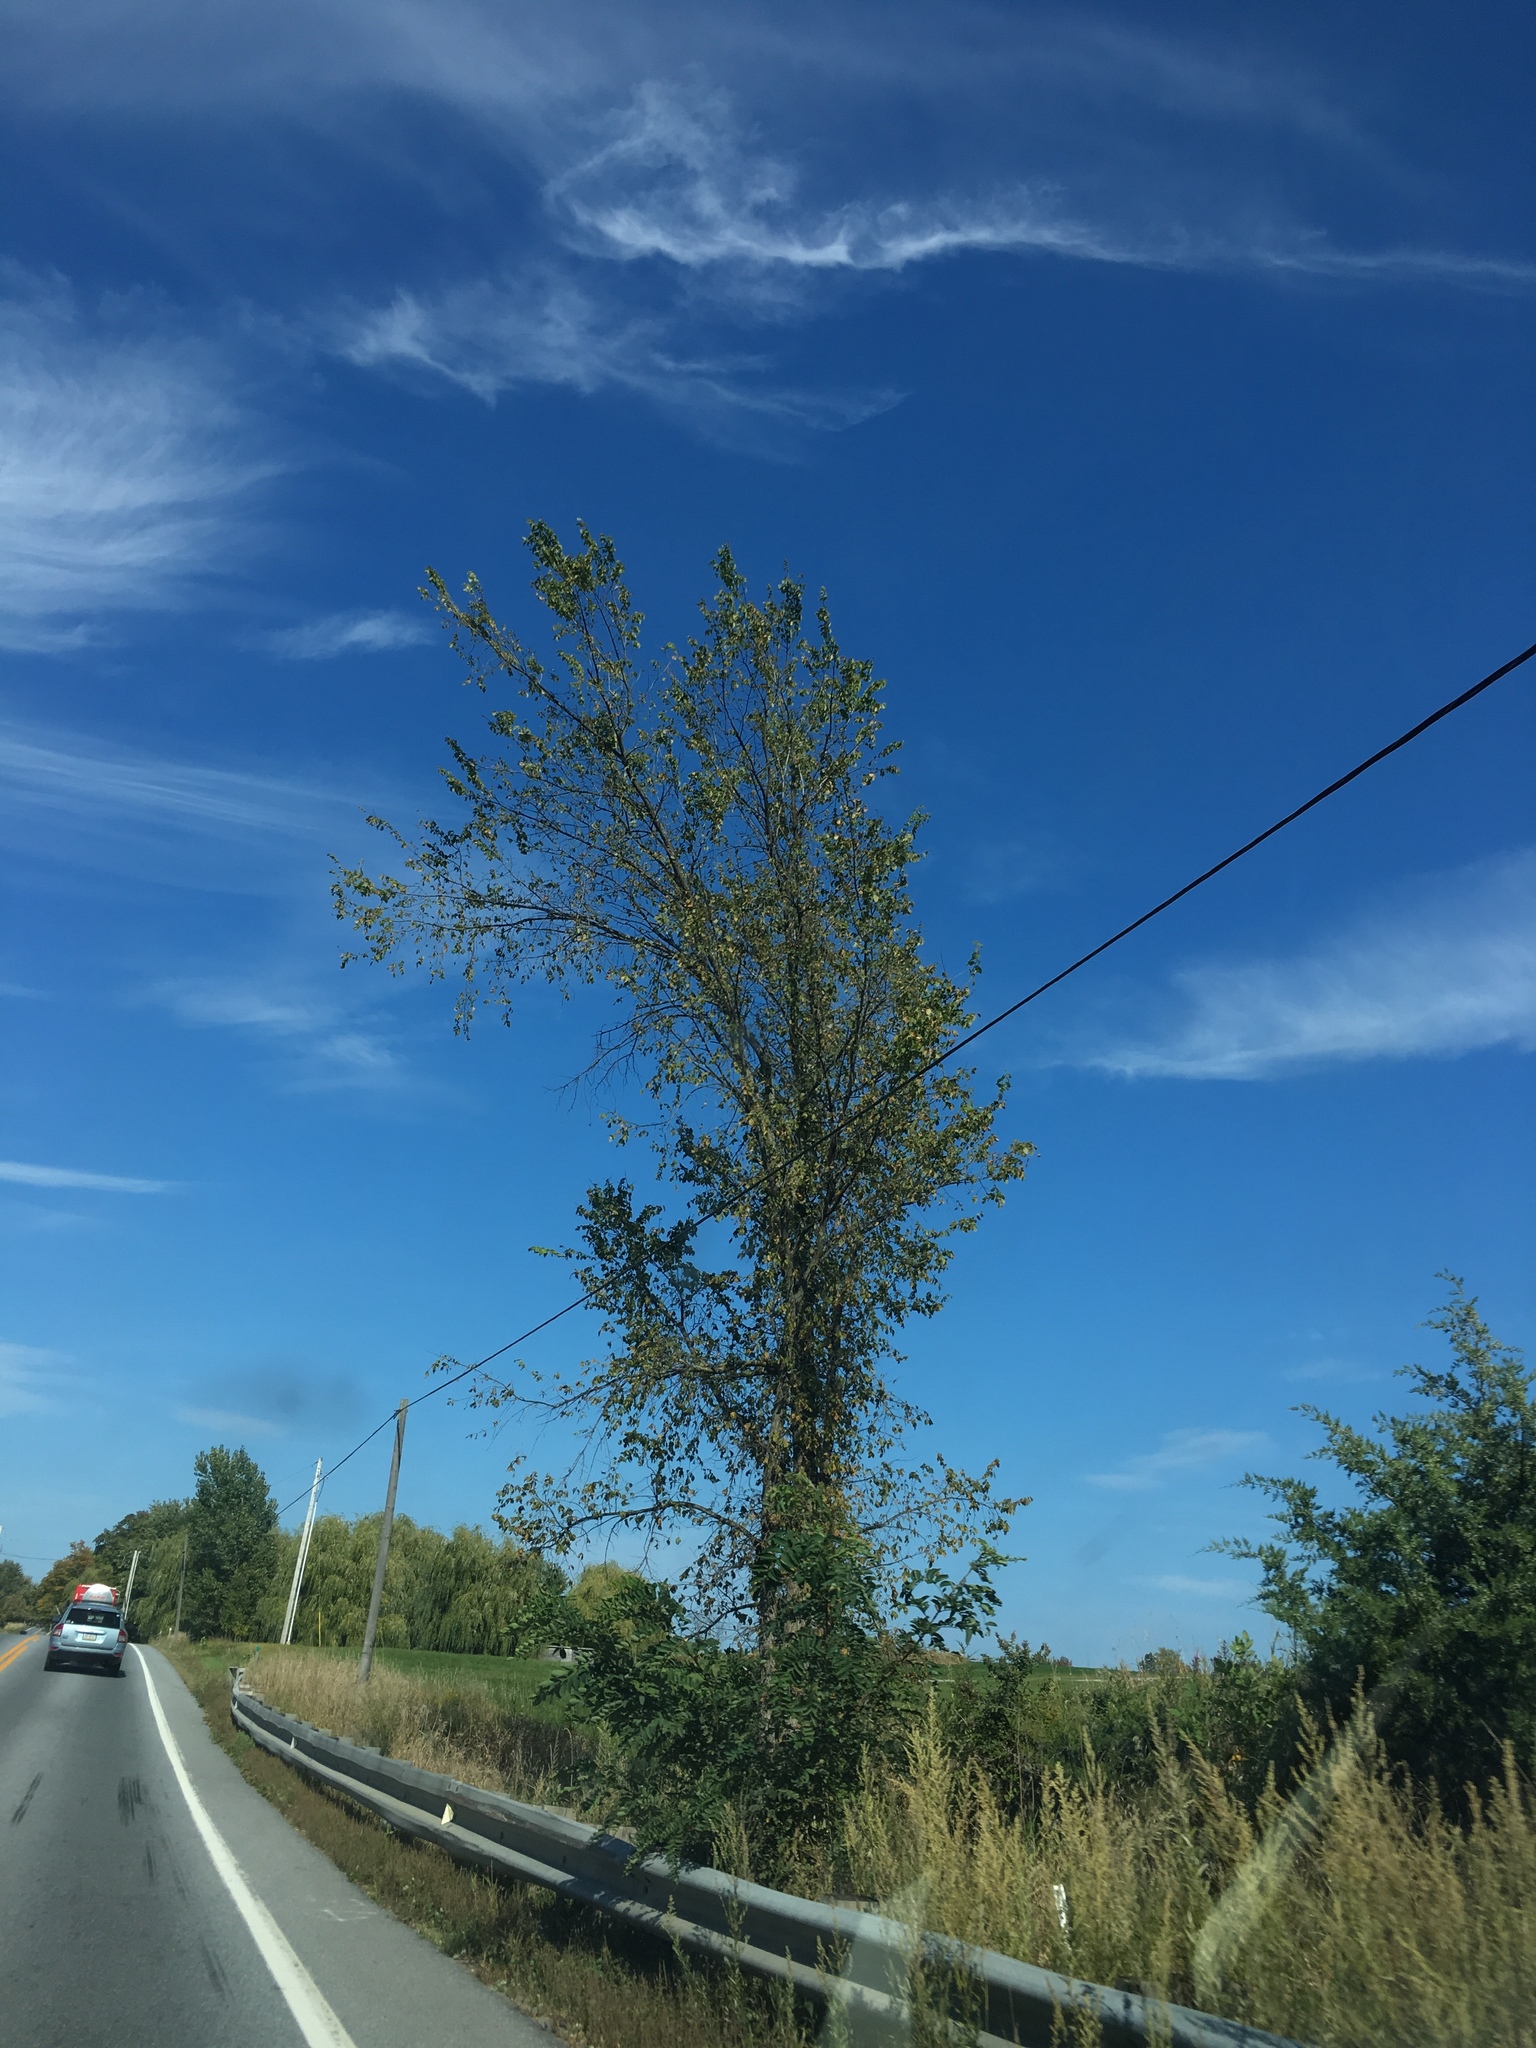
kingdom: Plantae
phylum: Tracheophyta
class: Magnoliopsida
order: Rosales
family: Ulmaceae
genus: Ulmus
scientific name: Ulmus americana
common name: American elm
